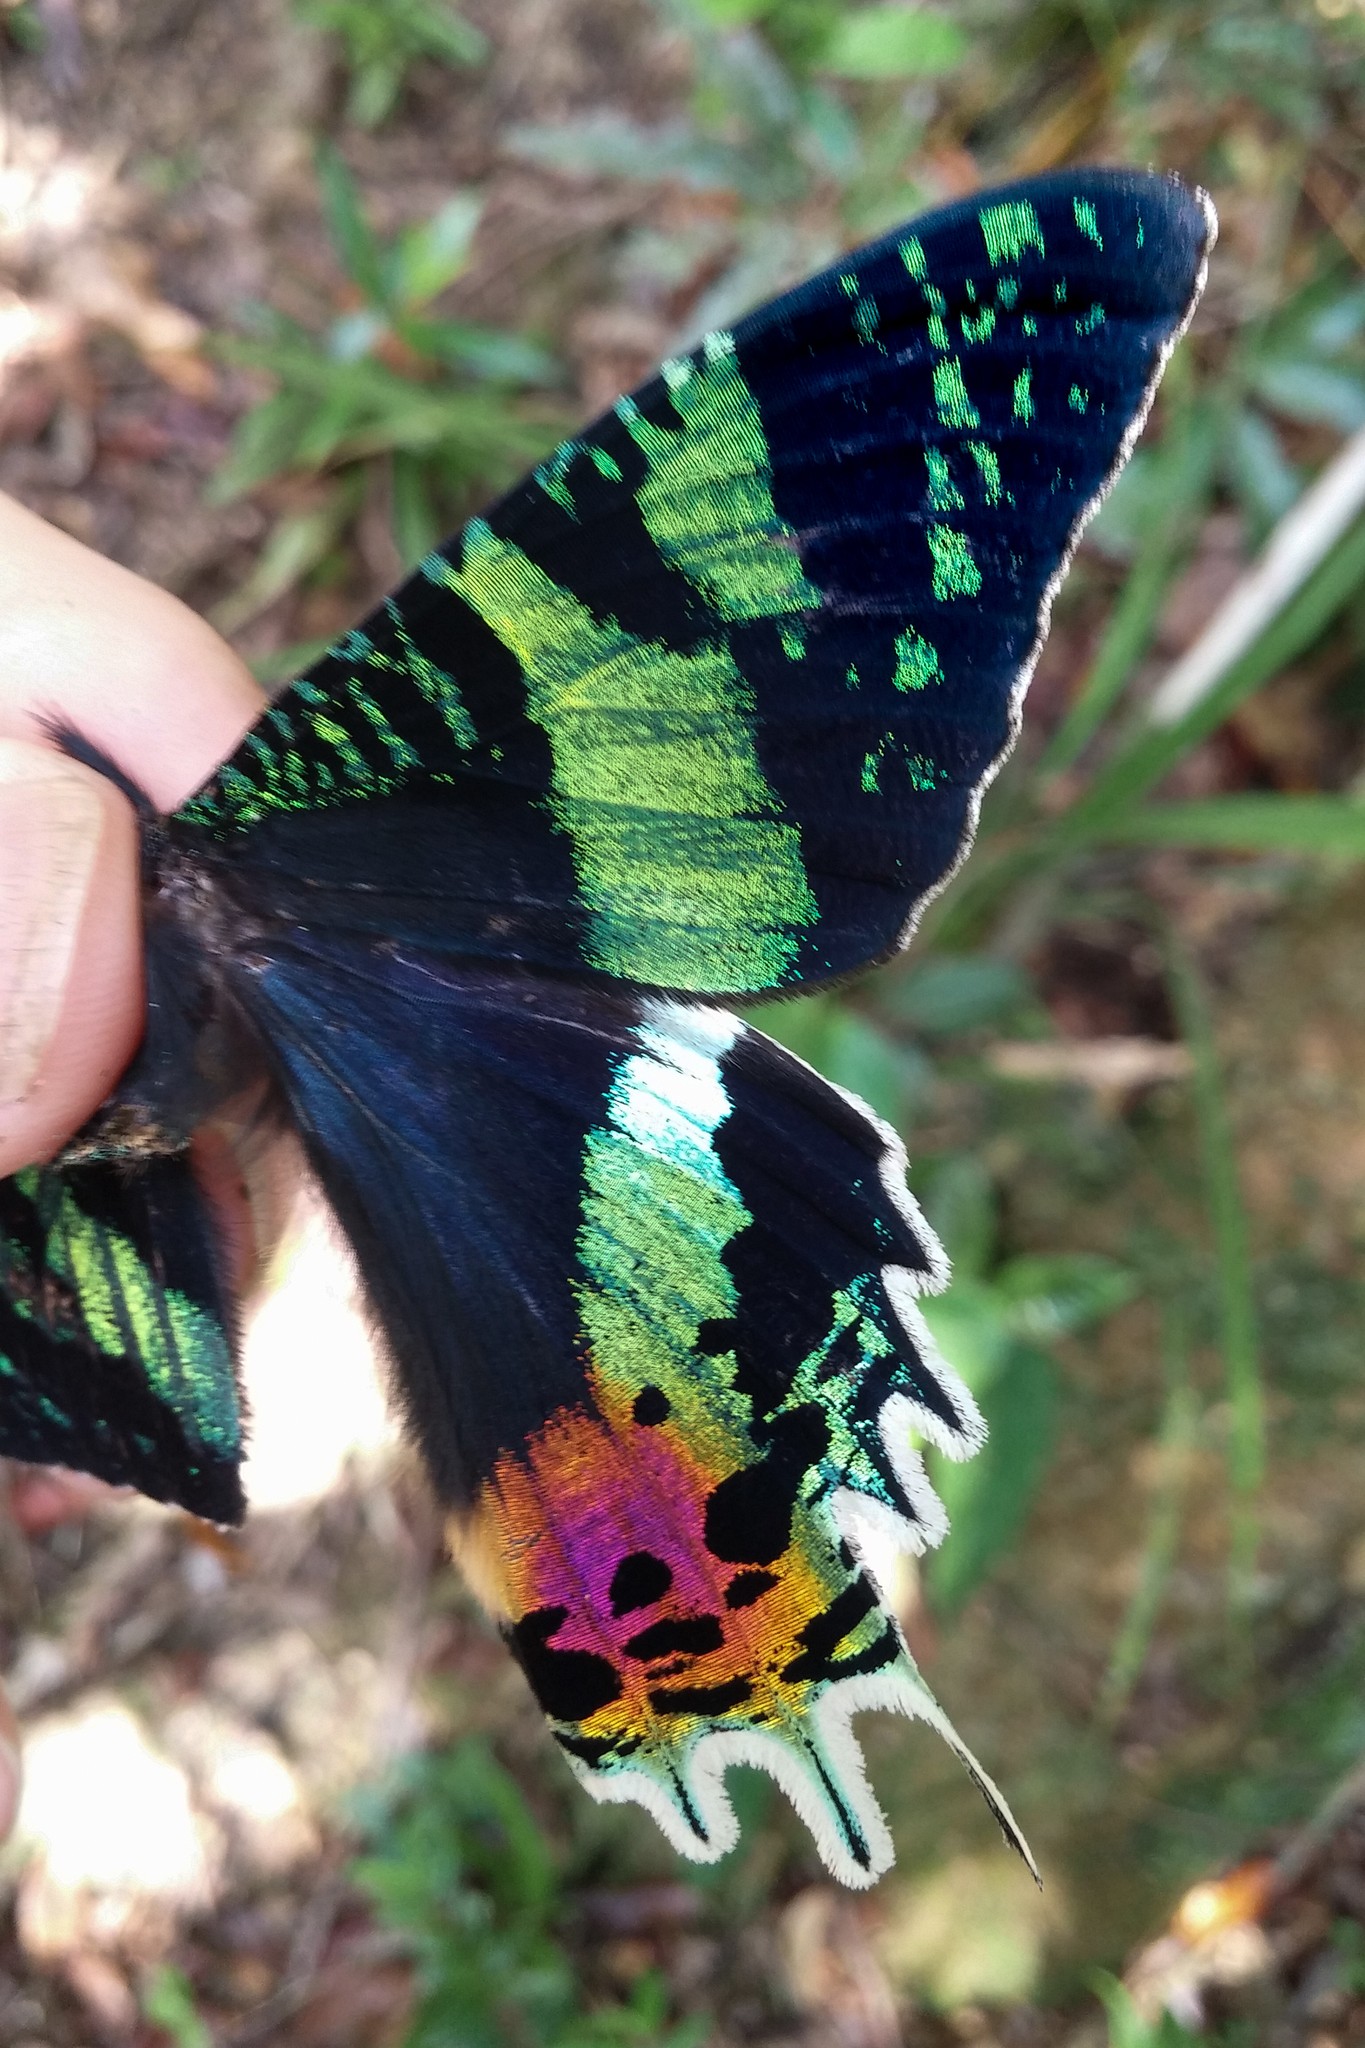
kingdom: Animalia
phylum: Arthropoda
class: Insecta
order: Lepidoptera
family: Uraniidae
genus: Chrysiridia
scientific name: Chrysiridia rhipheus
